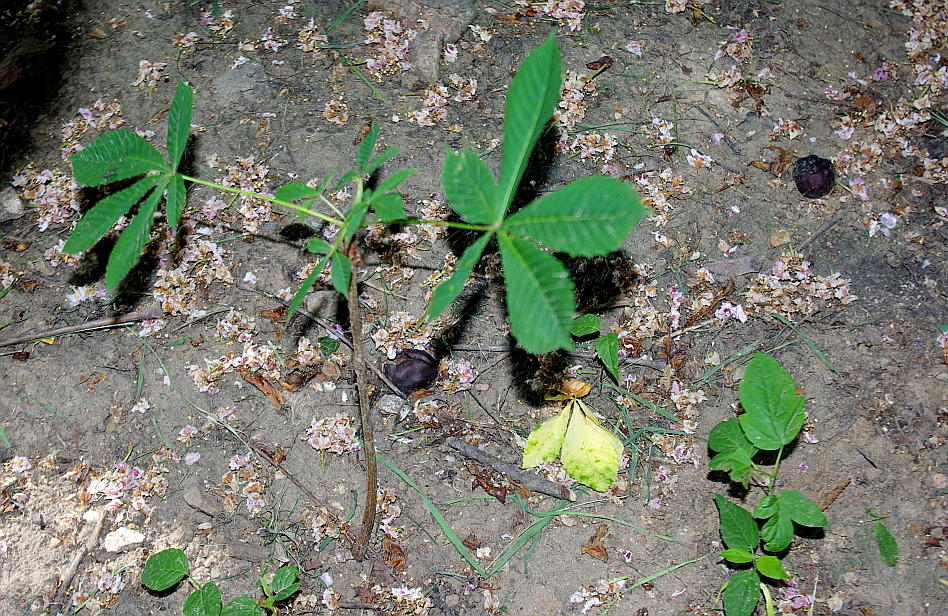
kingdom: Plantae
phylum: Tracheophyta
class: Magnoliopsida
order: Sapindales
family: Sapindaceae
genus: Aesculus
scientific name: Aesculus hippocastanum
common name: Horse-chestnut
